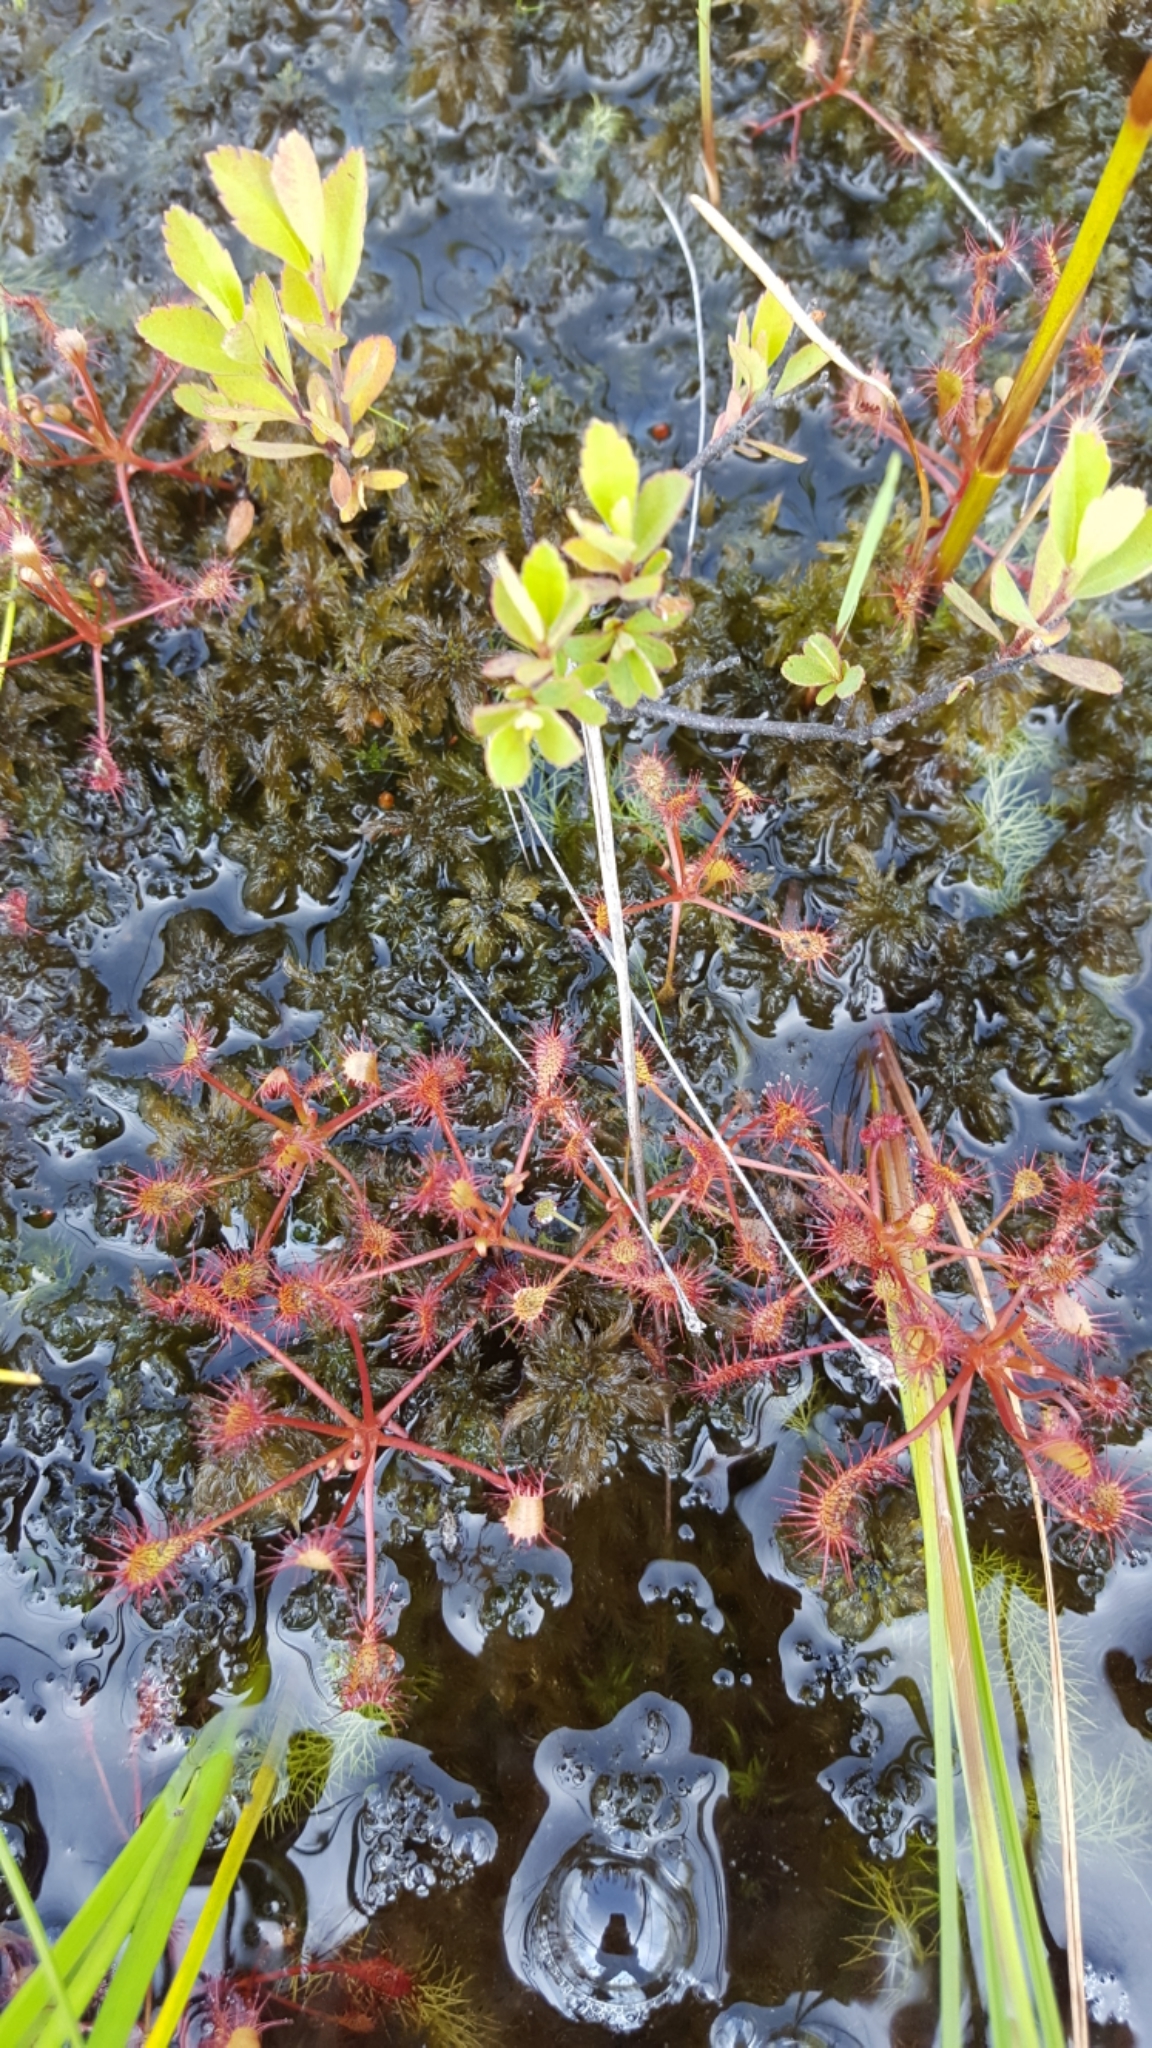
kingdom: Plantae
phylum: Tracheophyta
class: Magnoliopsida
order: Caryophyllales
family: Droseraceae
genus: Drosera
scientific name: Drosera intermedia
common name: Oblong-leaved sundew
